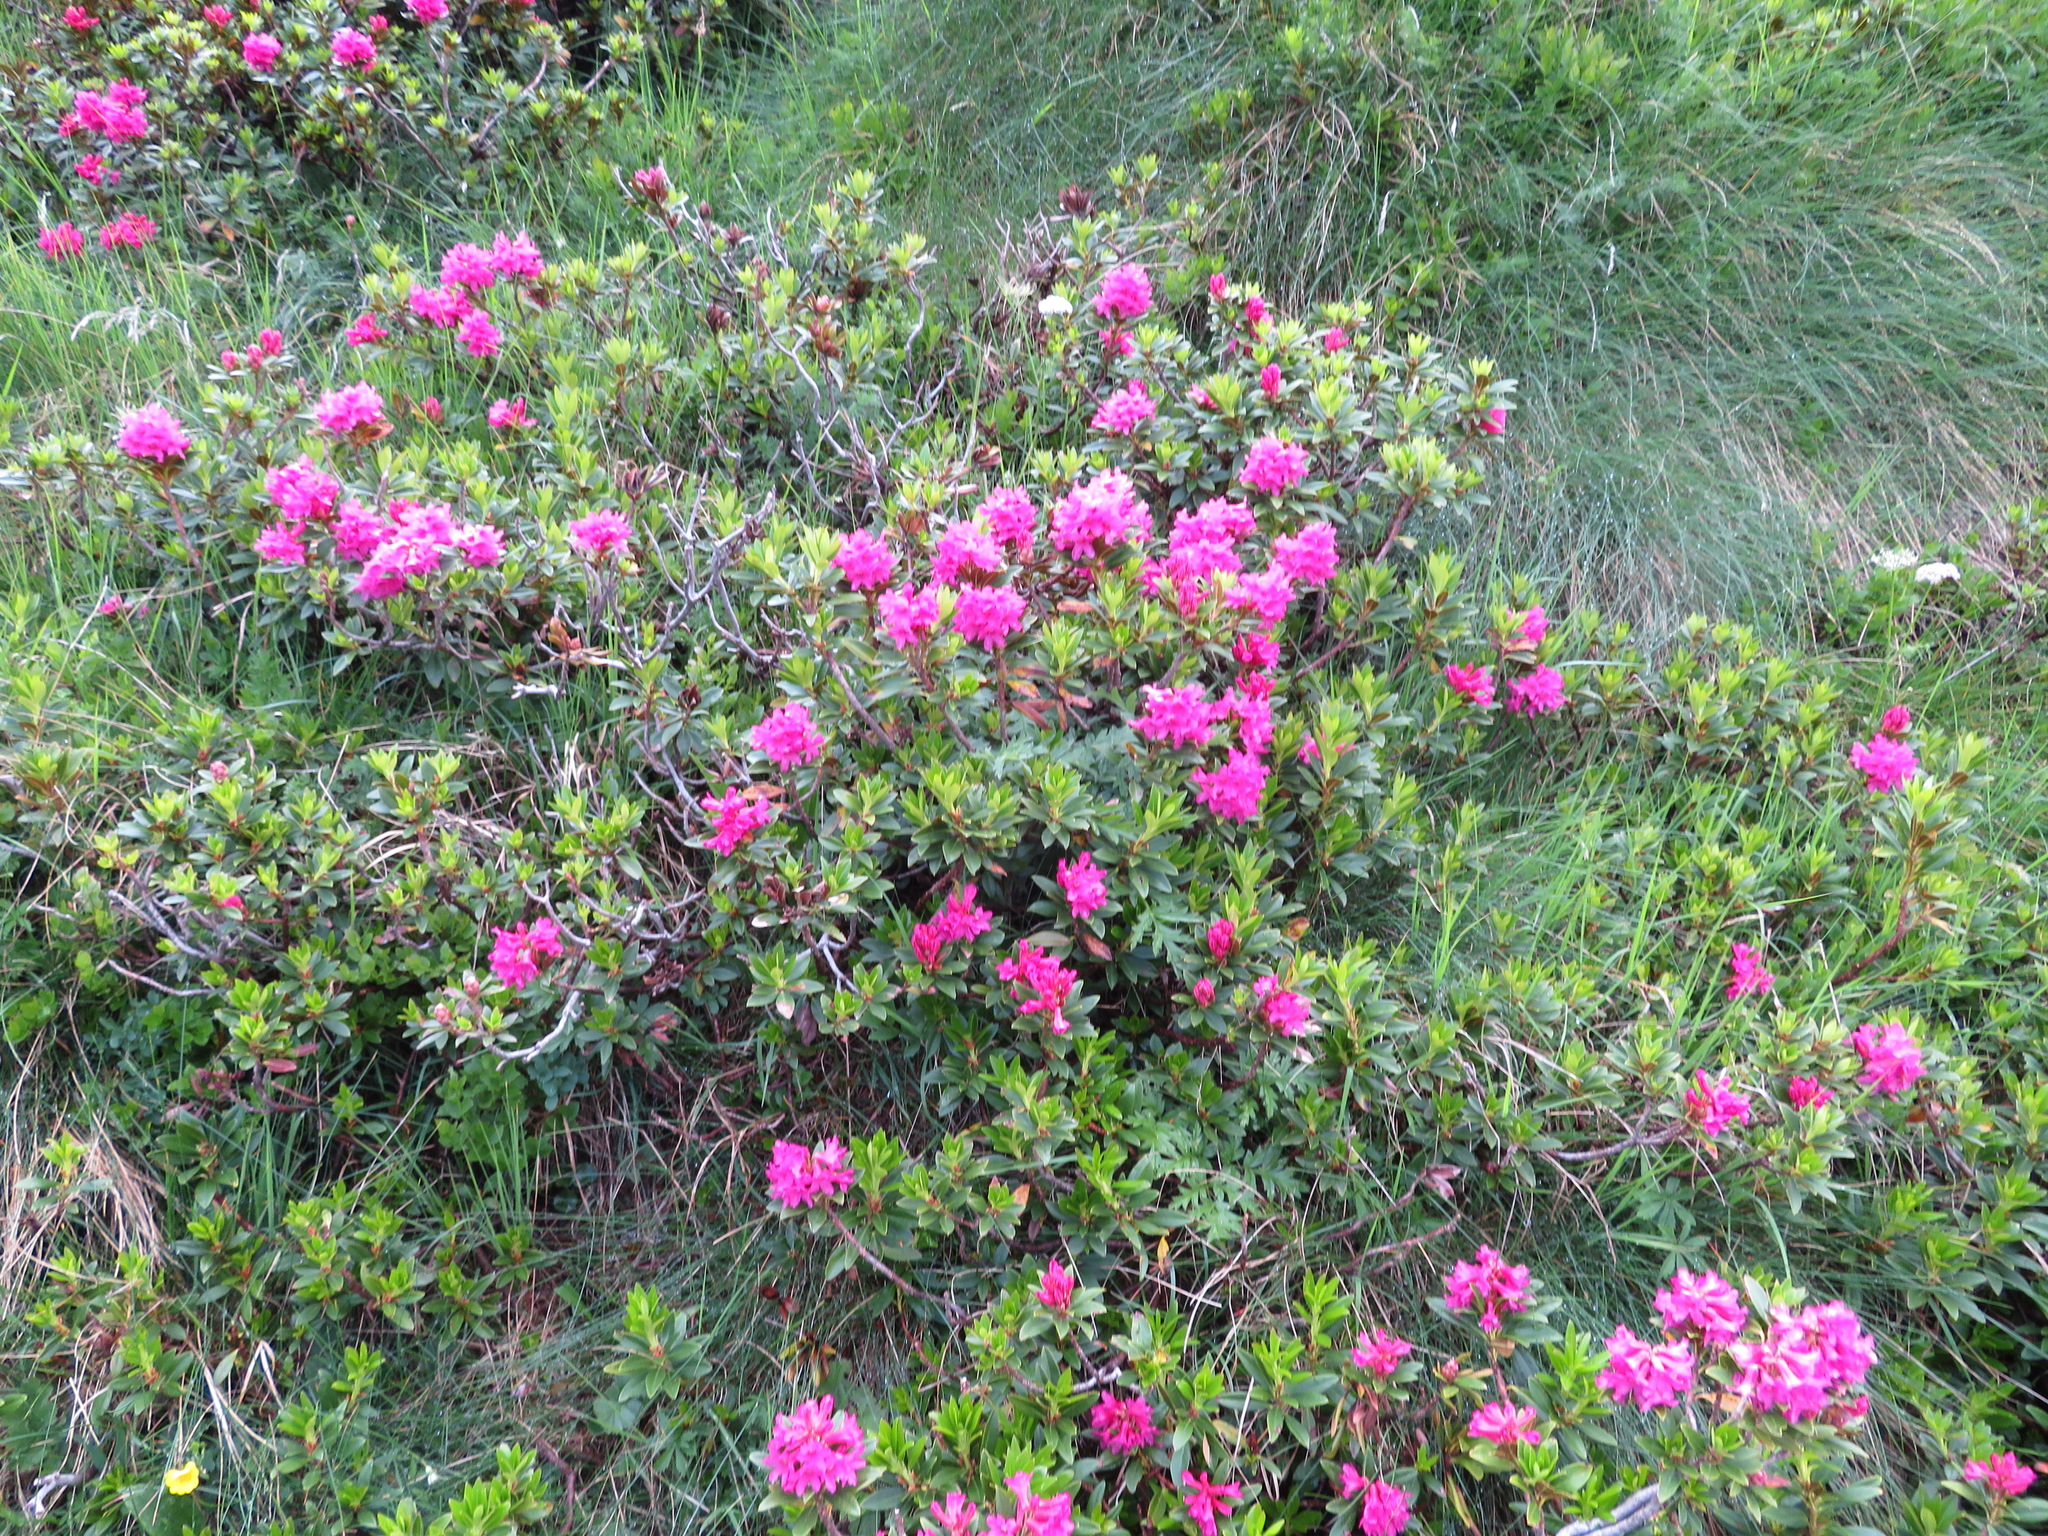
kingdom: Plantae
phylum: Tracheophyta
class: Magnoliopsida
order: Ericales
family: Ericaceae
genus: Rhododendron
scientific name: Rhododendron ferrugineum
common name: Alpenrose
